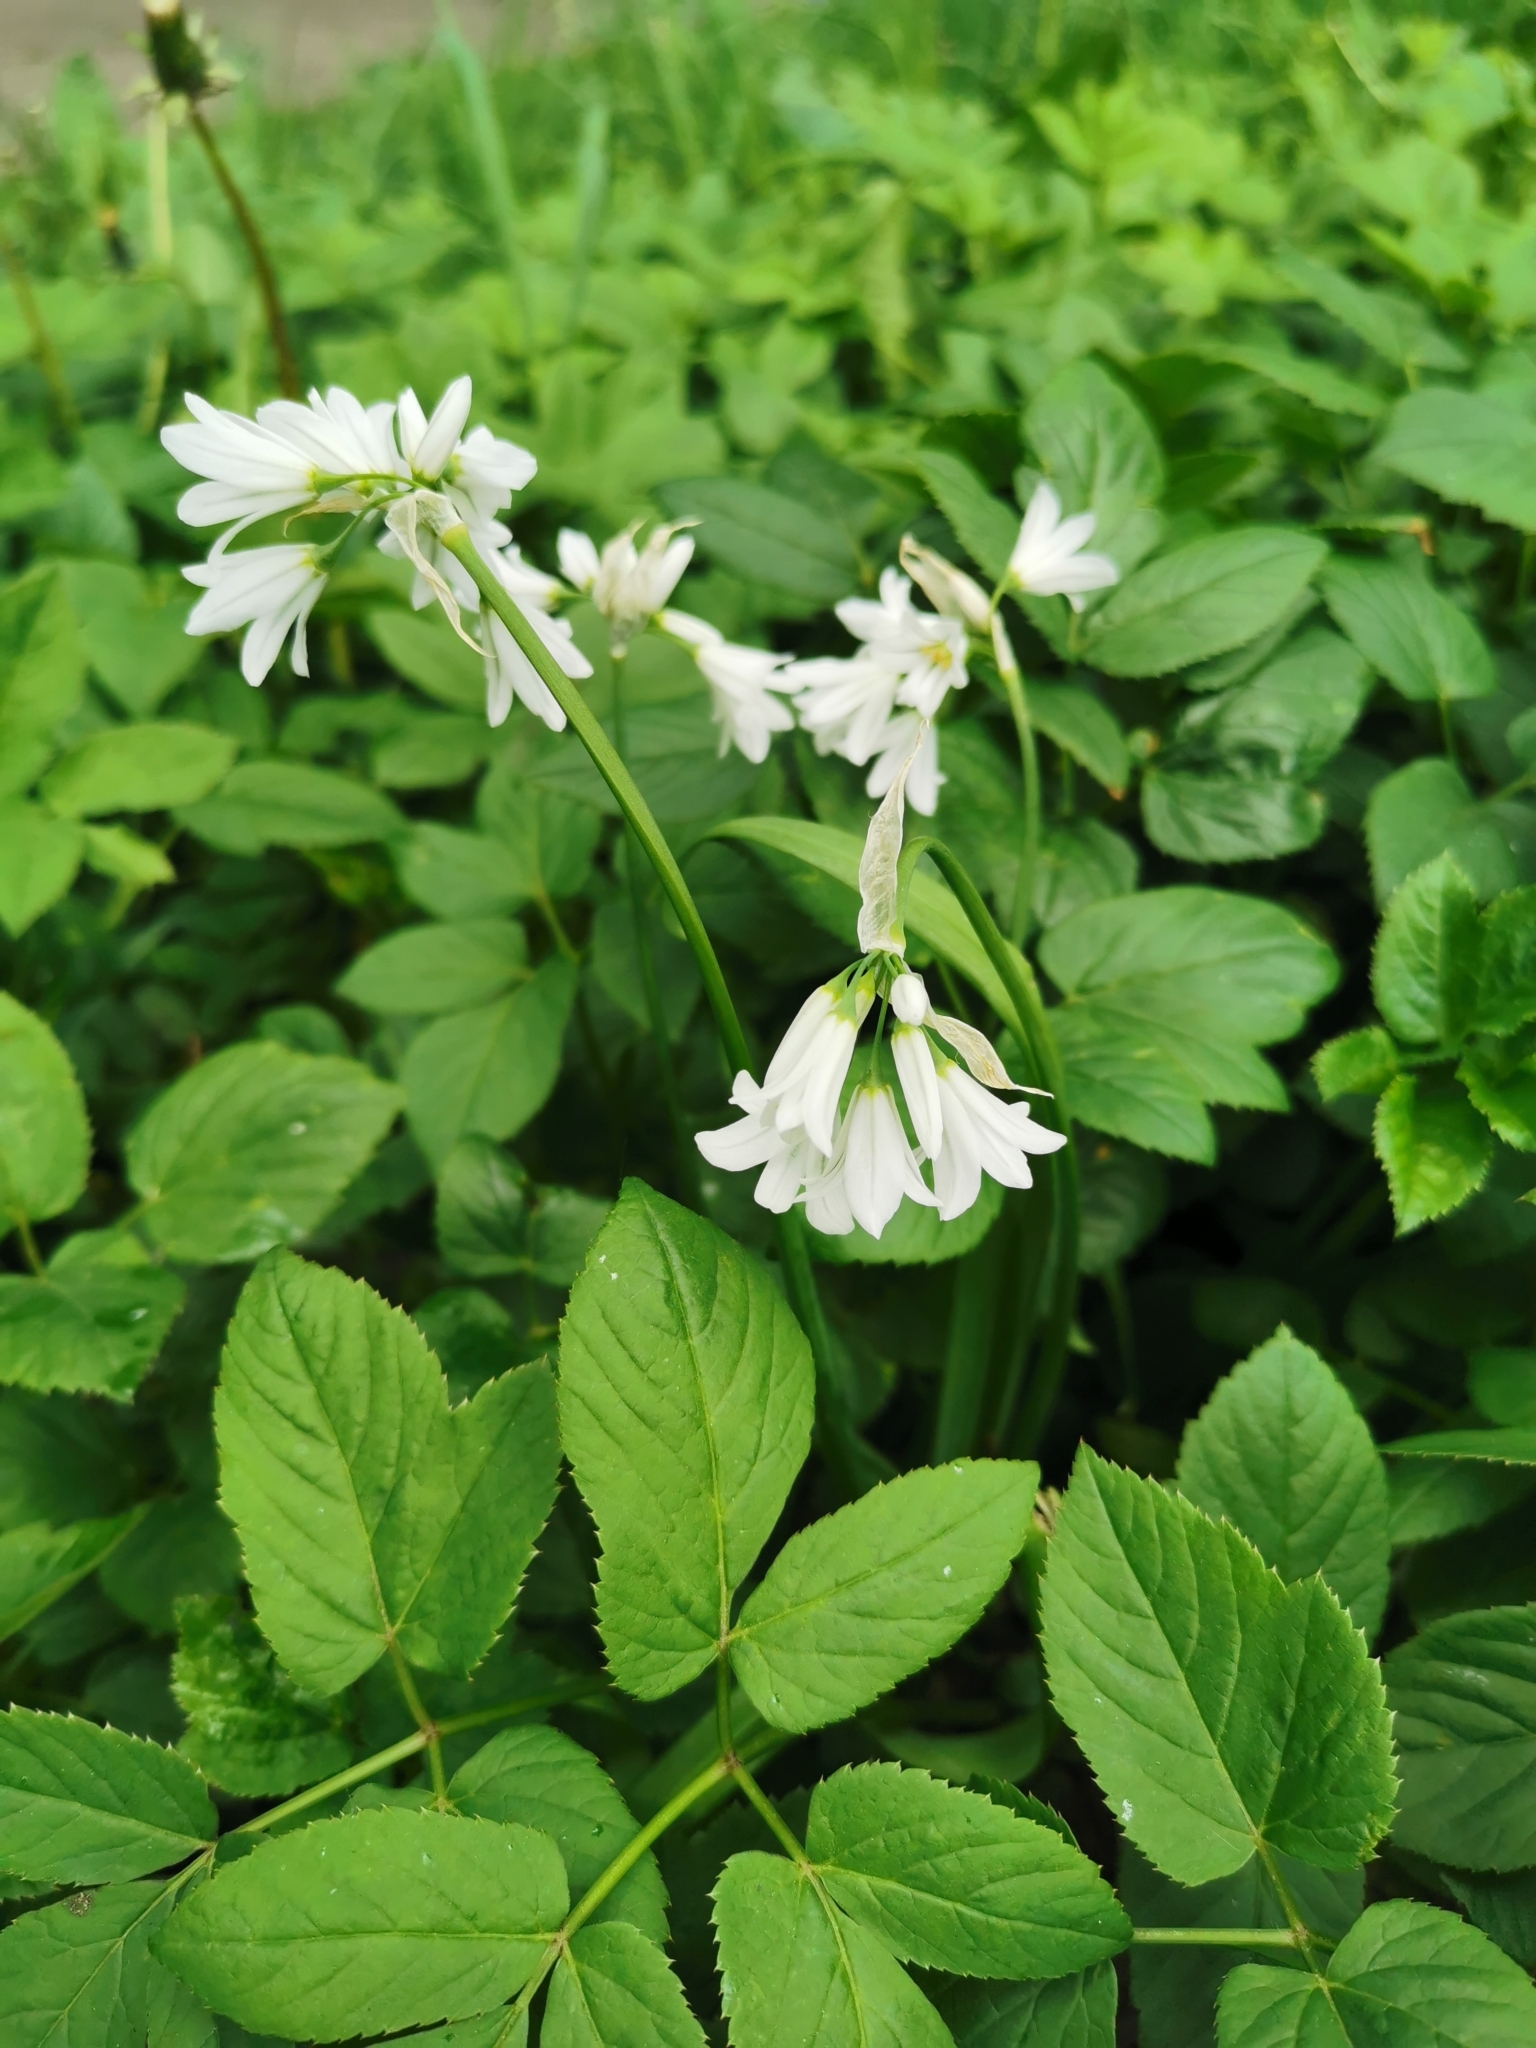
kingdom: Plantae
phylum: Tracheophyta
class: Liliopsida
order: Asparagales
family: Amaryllidaceae
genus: Allium
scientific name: Allium triquetrum
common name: Three-cornered garlic
